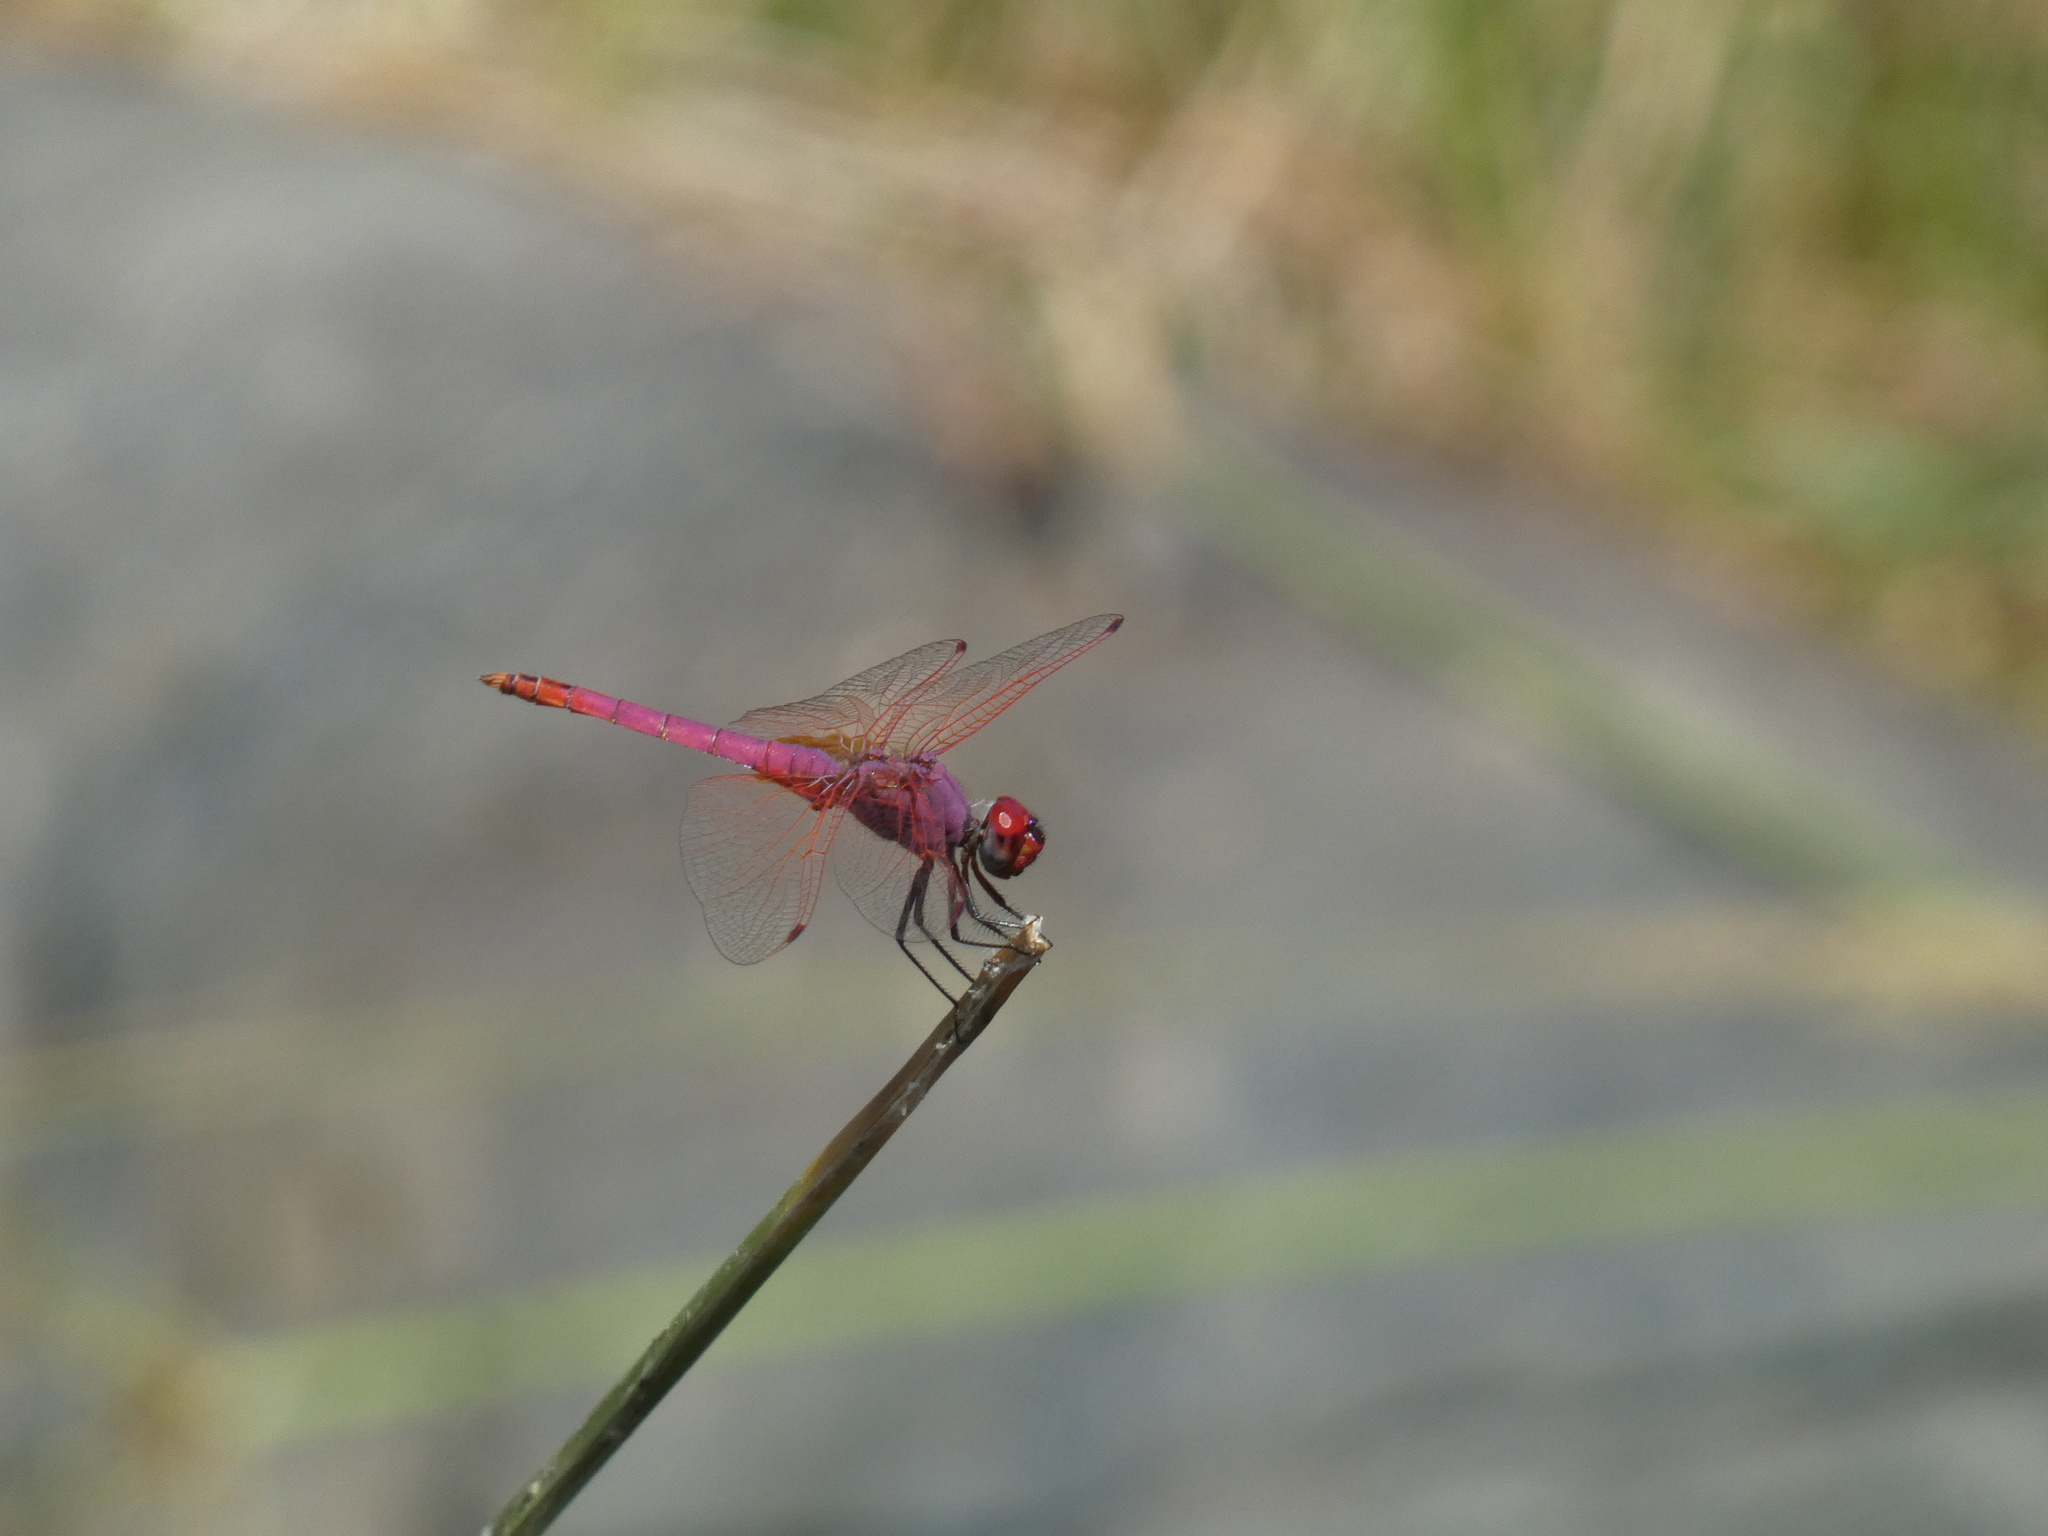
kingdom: Animalia
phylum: Arthropoda
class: Insecta
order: Odonata
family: Libellulidae
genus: Trithemis
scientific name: Trithemis annulata
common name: Violet dropwing
